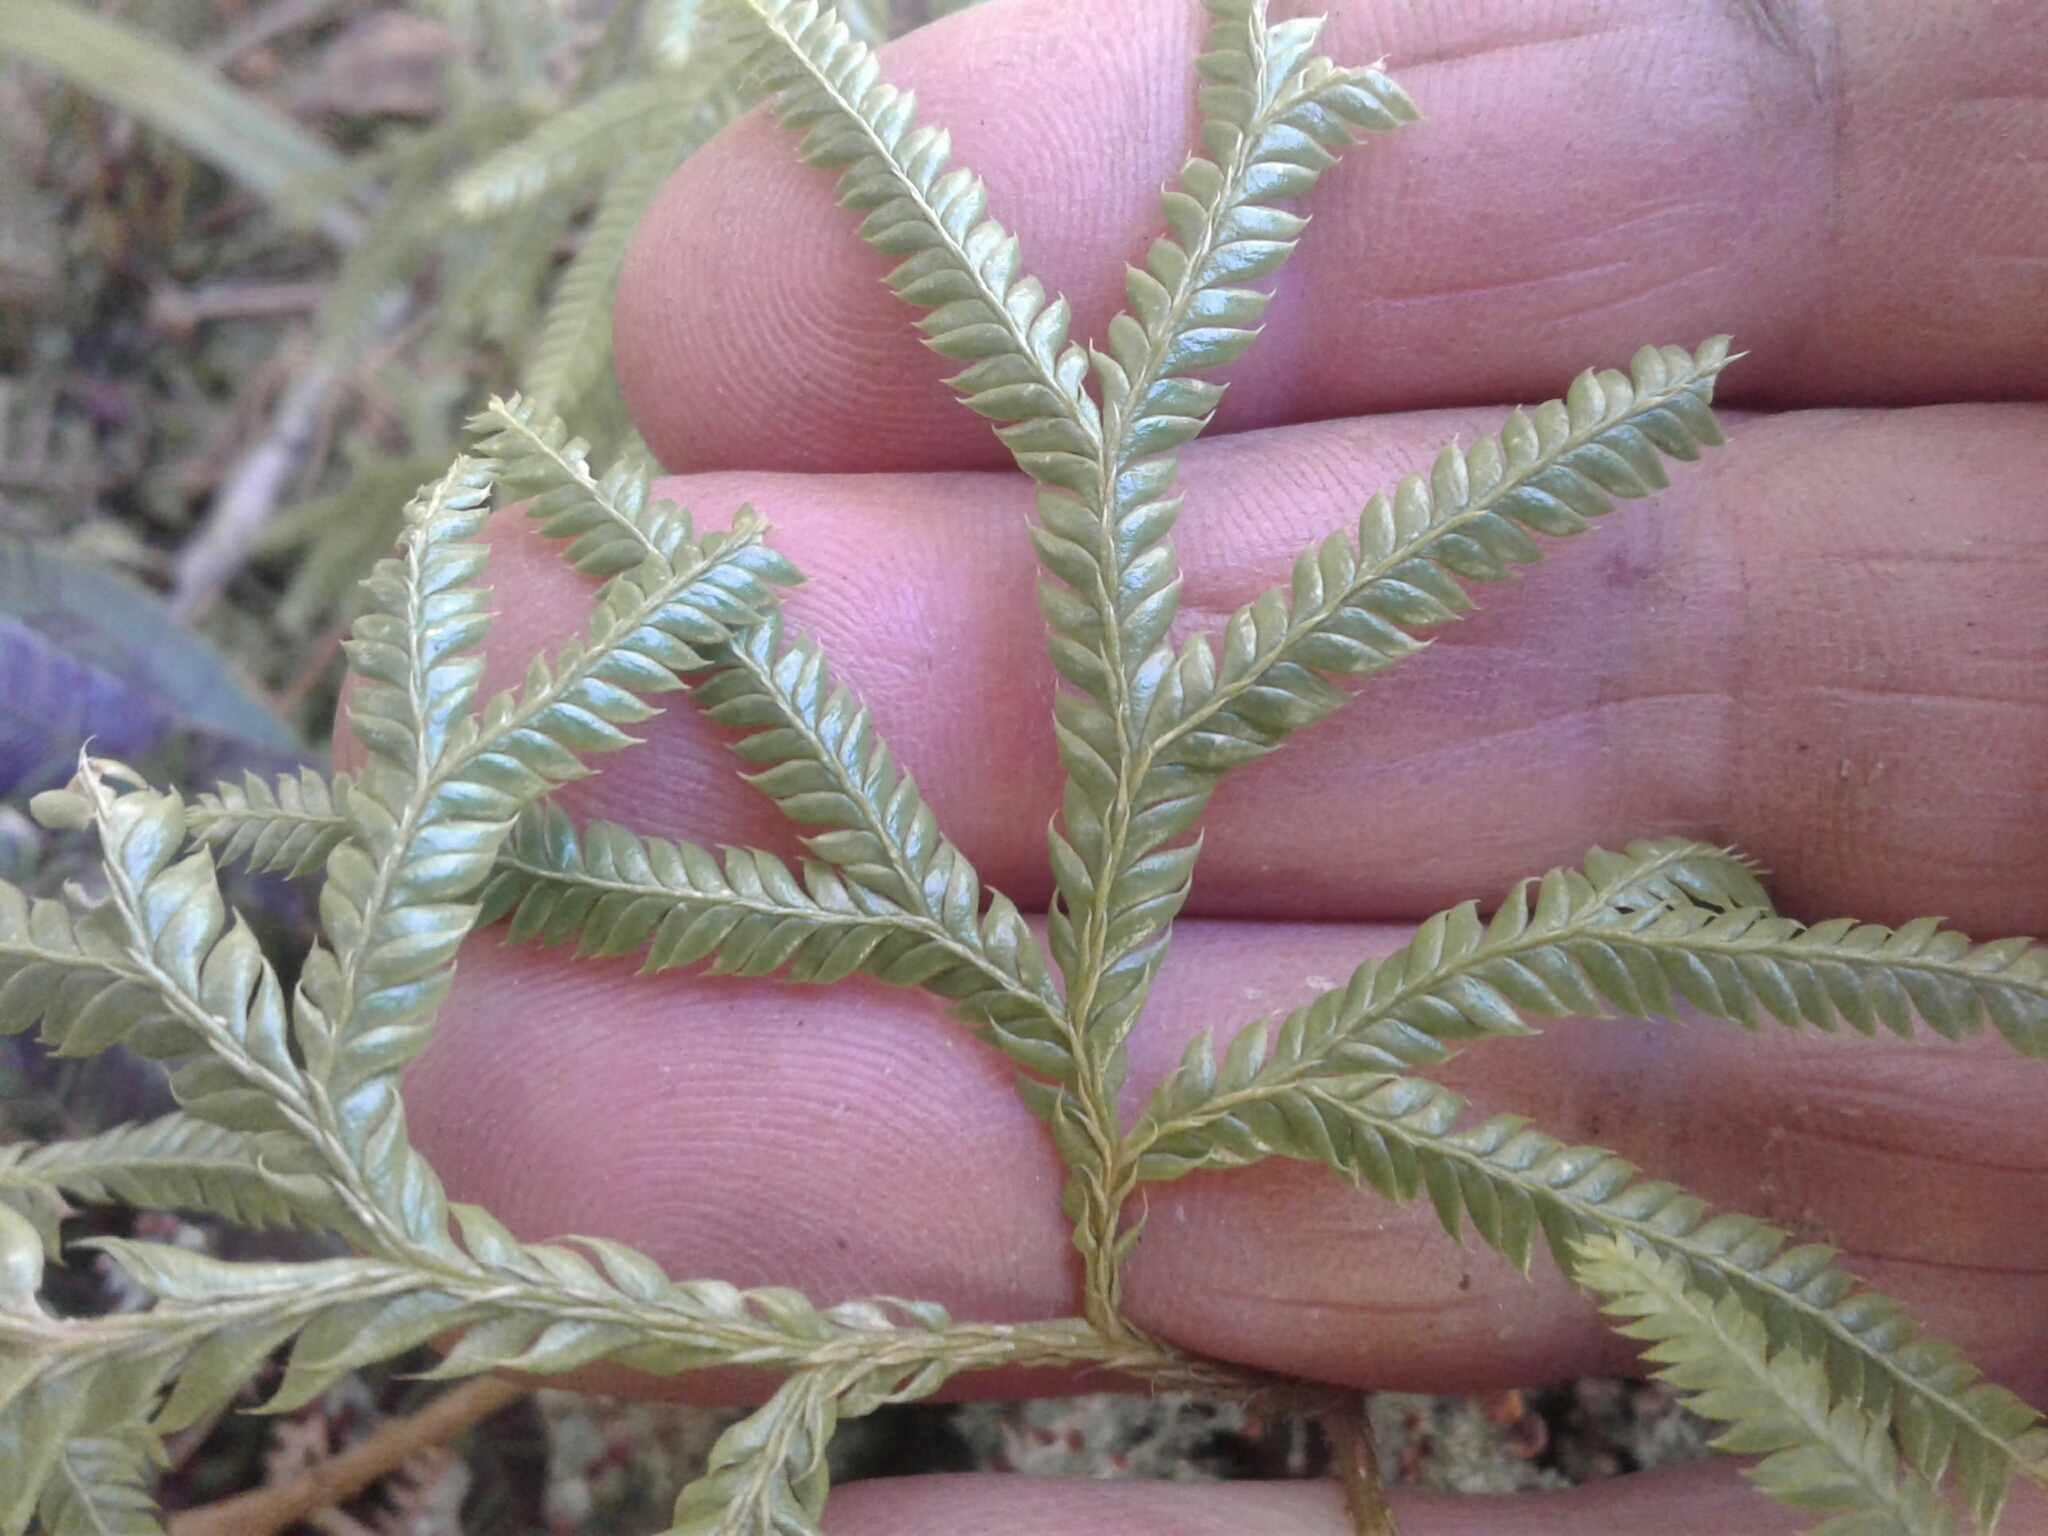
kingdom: Plantae
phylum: Tracheophyta
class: Lycopodiopsida
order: Lycopodiales
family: Lycopodiaceae
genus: Lycopodium
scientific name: Lycopodium volubile
